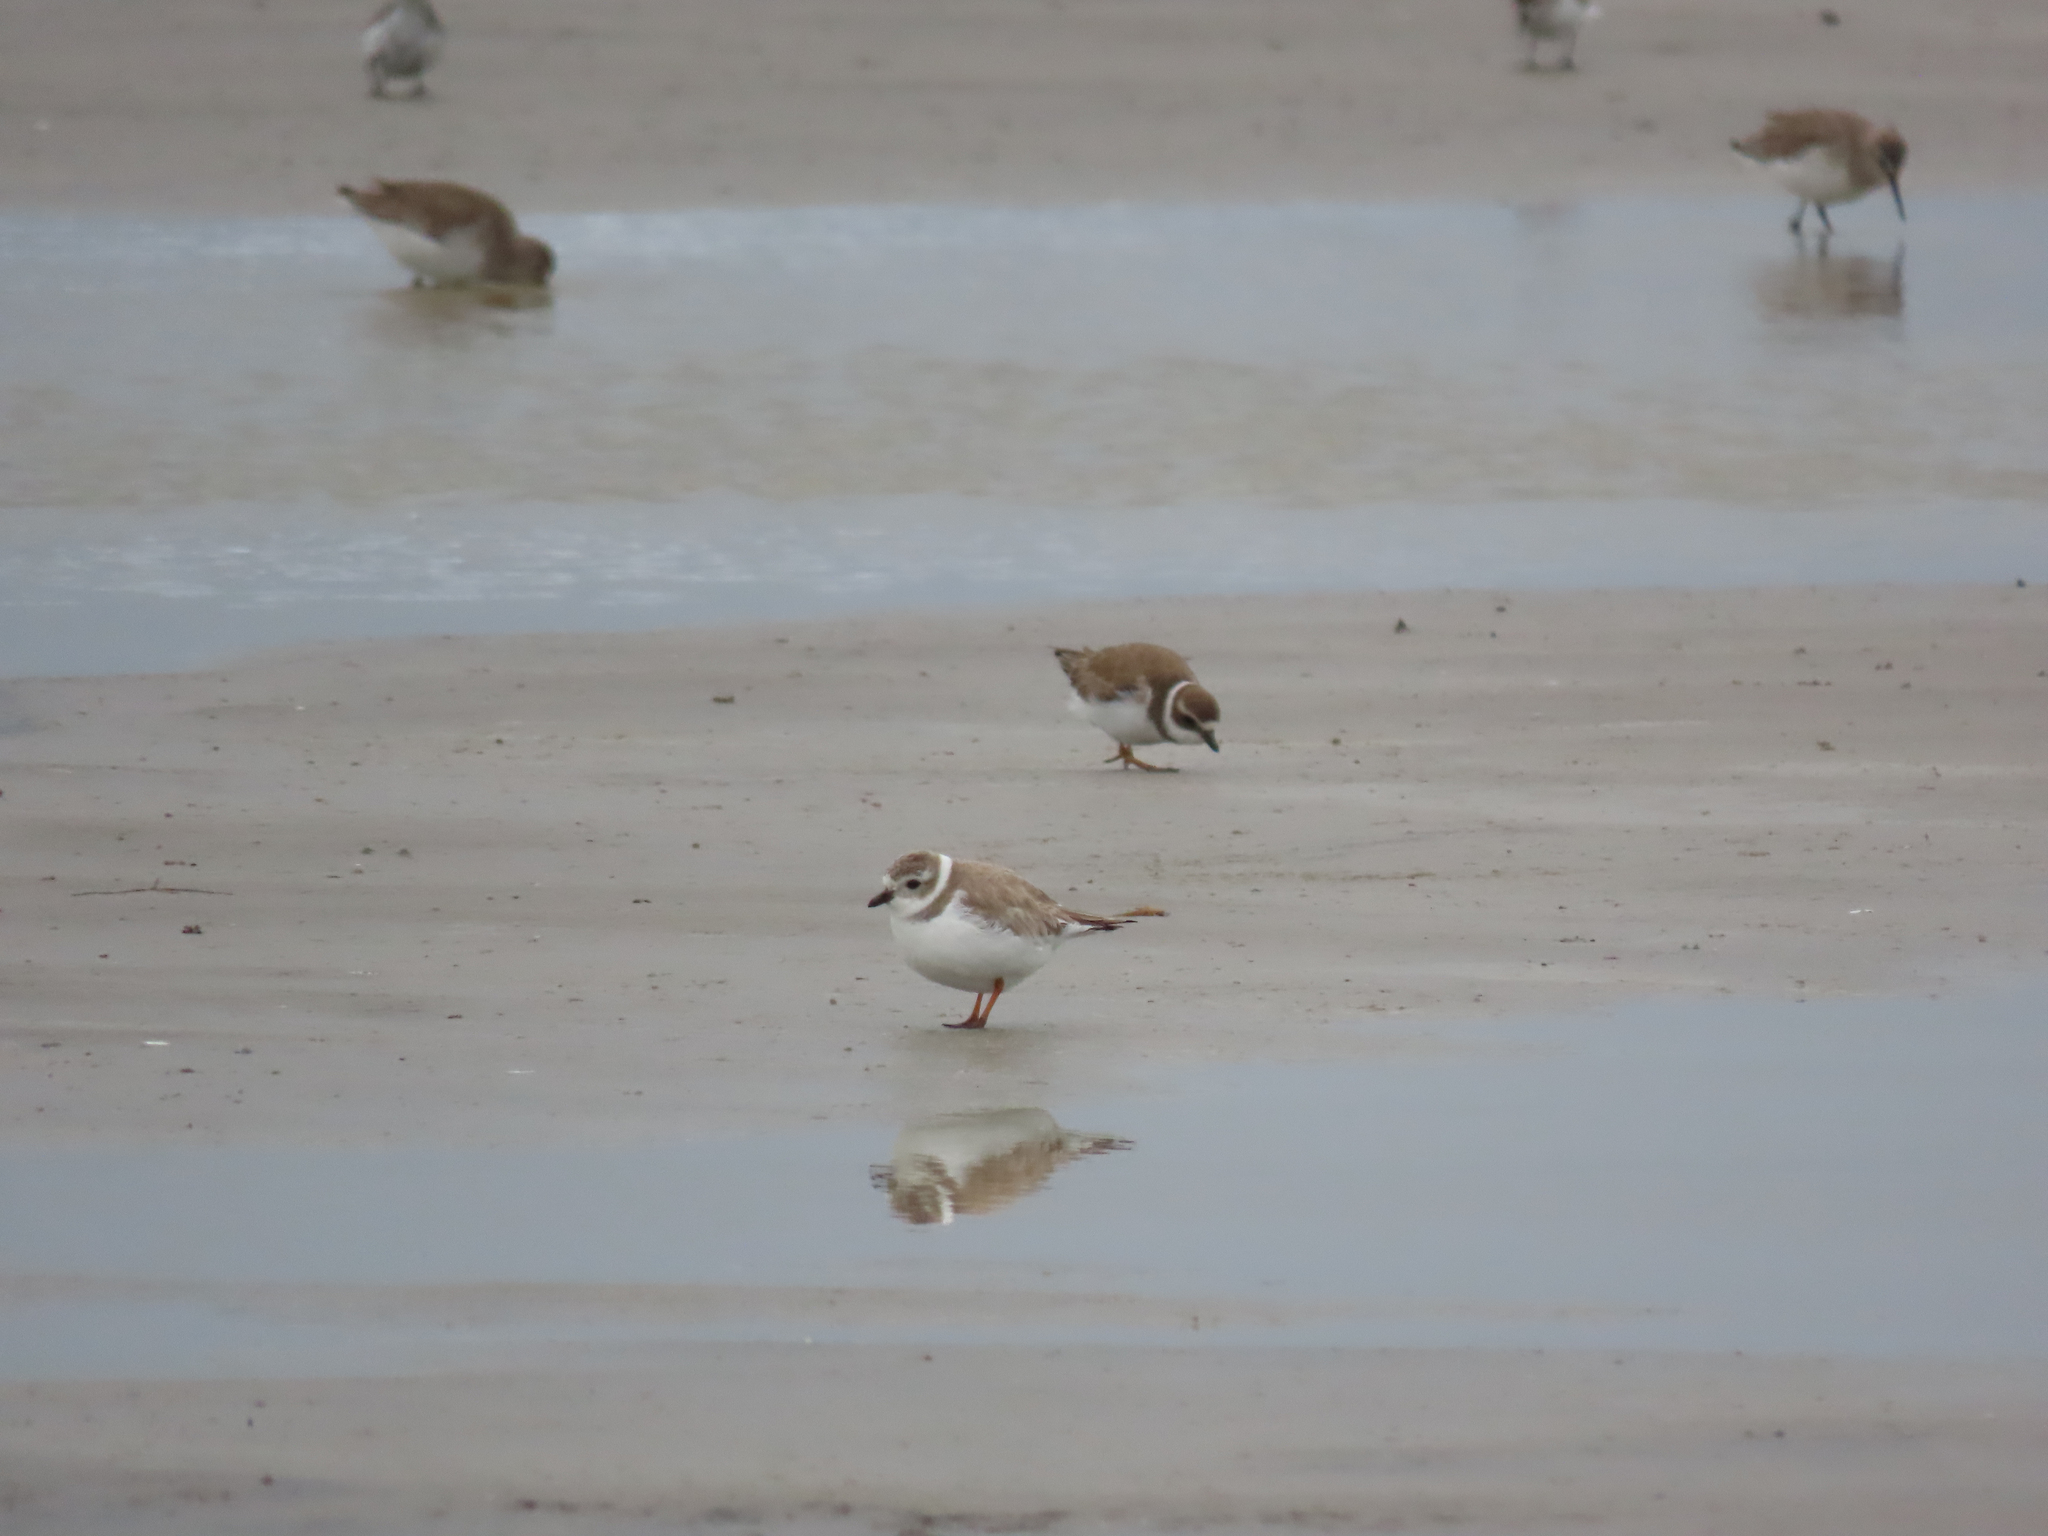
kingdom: Animalia
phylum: Chordata
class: Aves
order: Charadriiformes
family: Charadriidae
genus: Charadrius
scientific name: Charadrius melodus
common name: Piping plover
